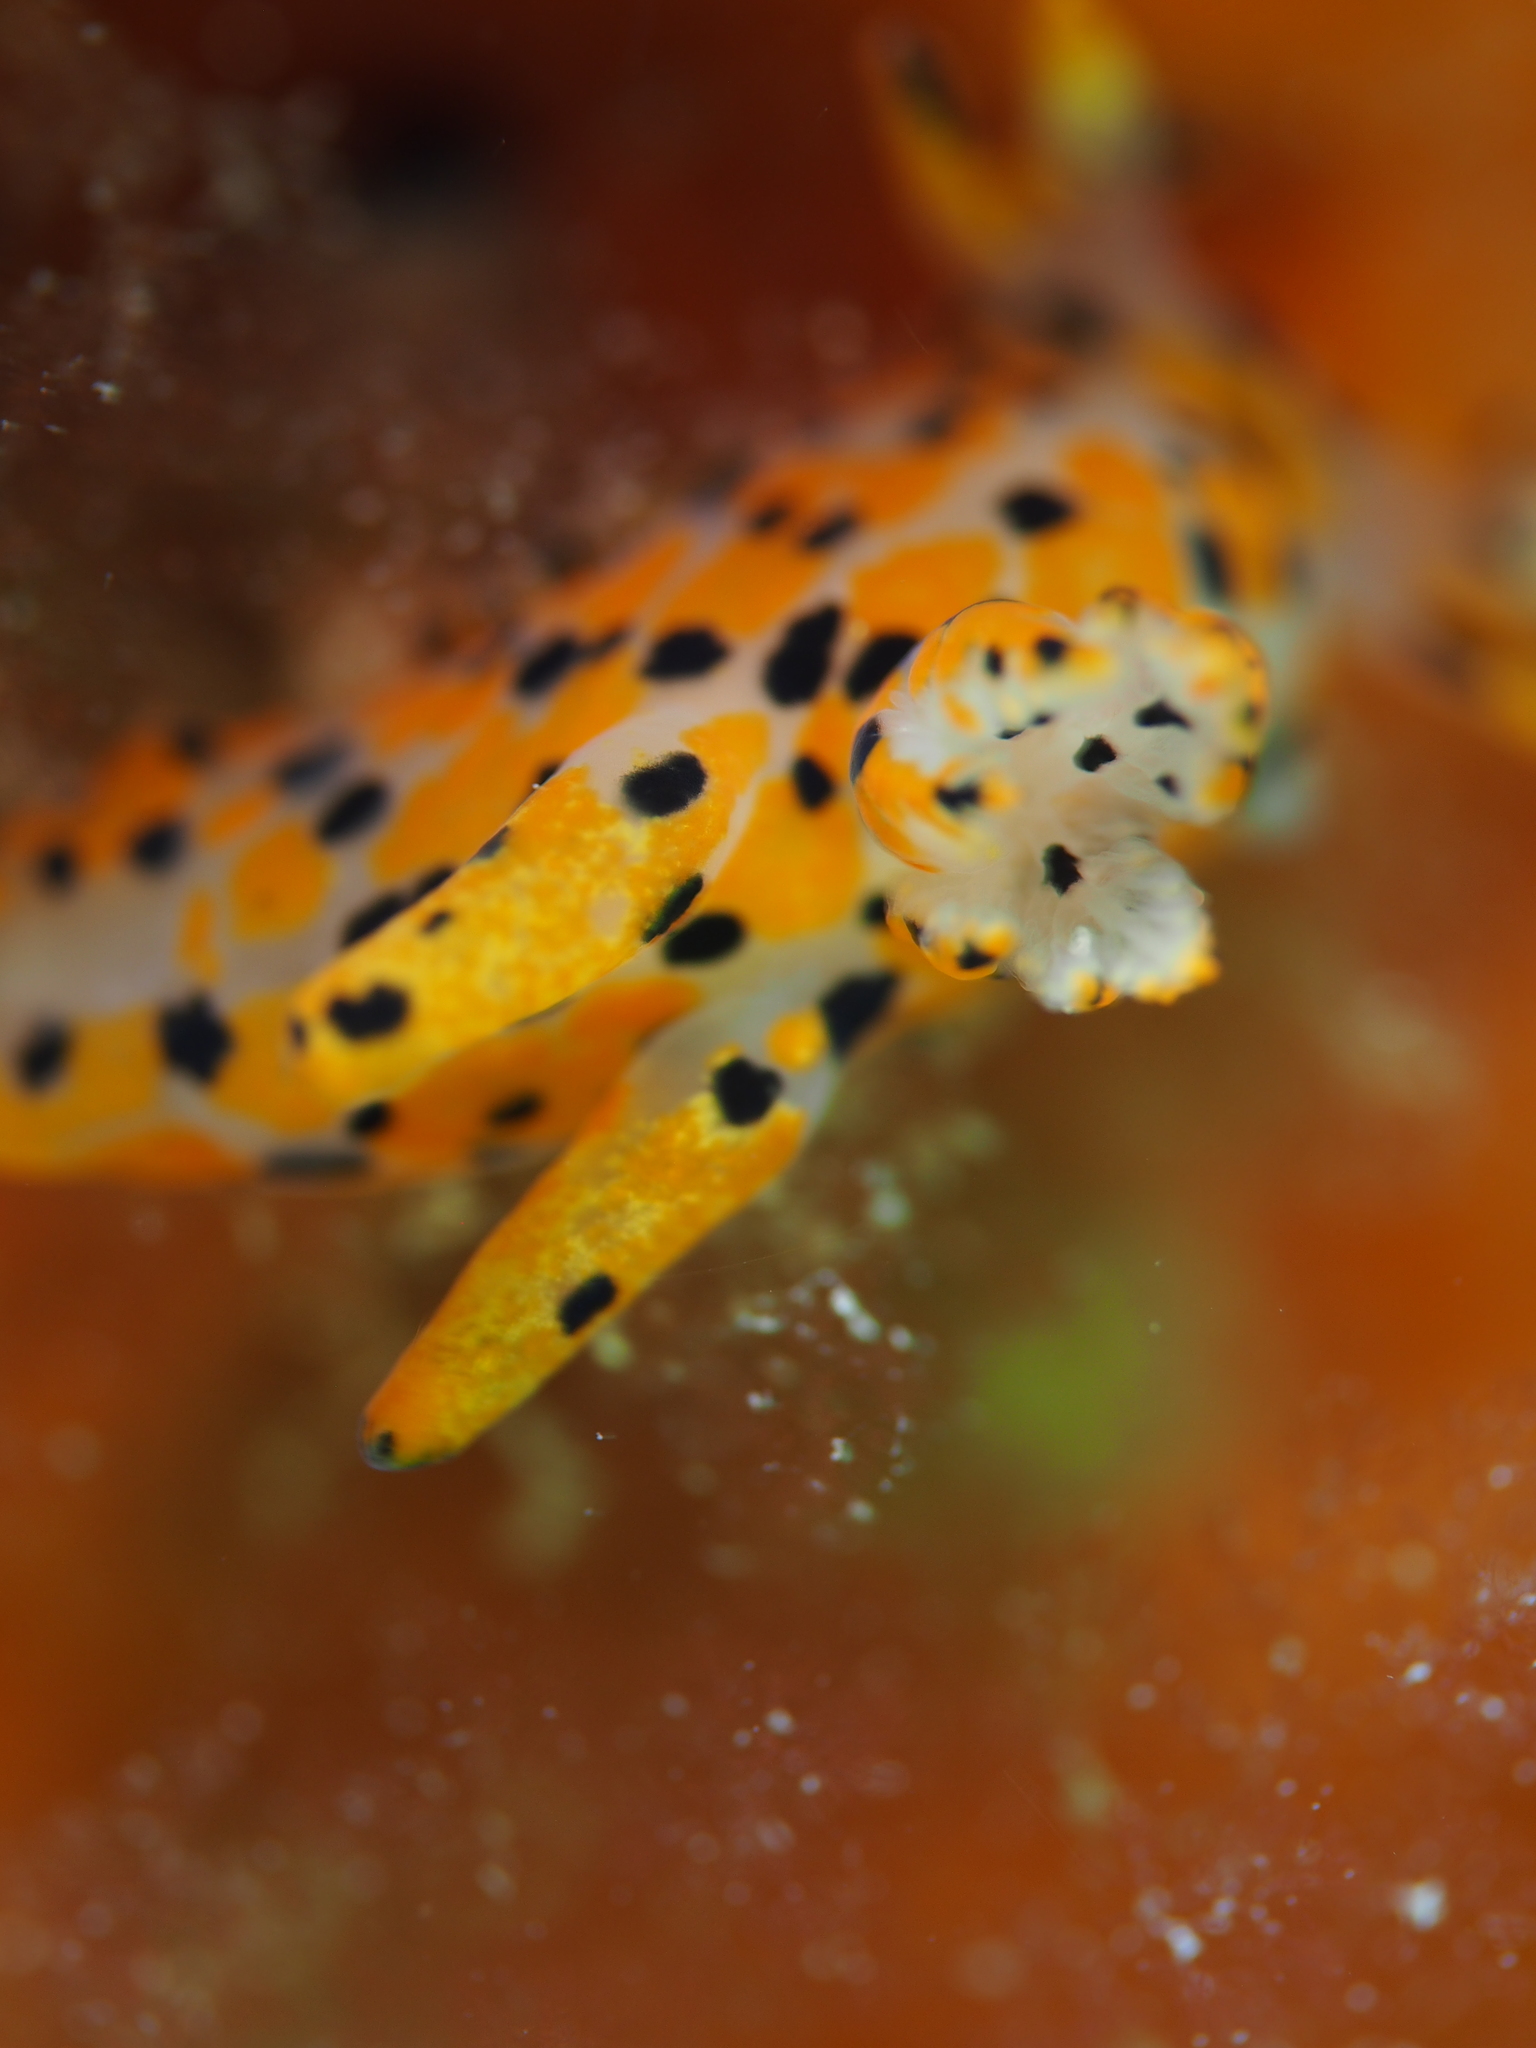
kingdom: Animalia
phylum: Mollusca
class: Gastropoda
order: Nudibranchia
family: Polyceridae
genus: Thecacera
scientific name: Thecacera pennigera
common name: Thecacera
